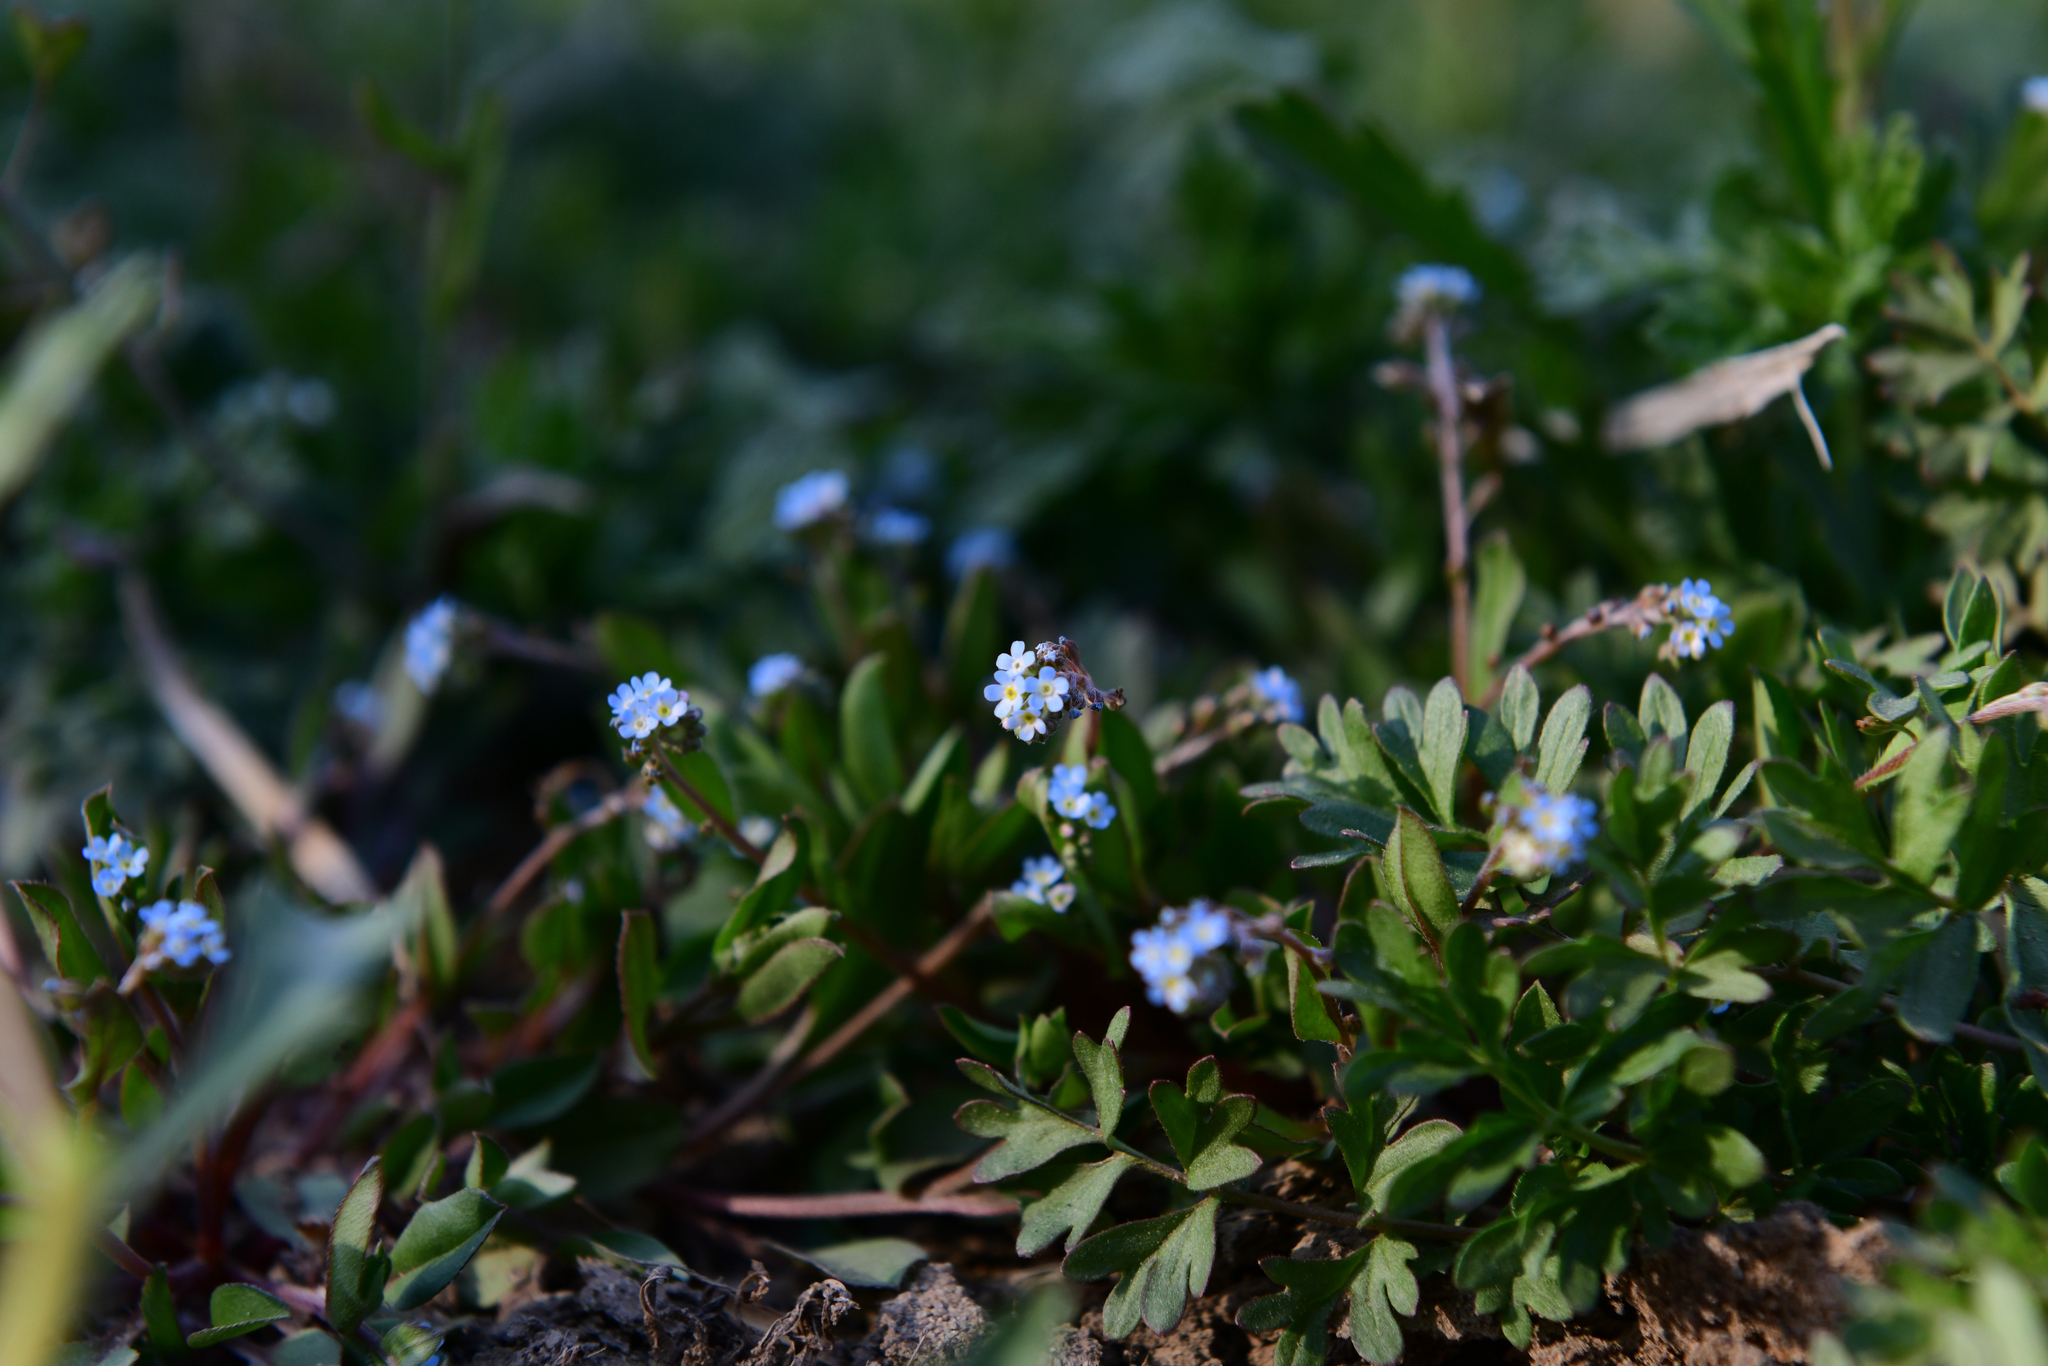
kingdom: Plantae
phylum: Tracheophyta
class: Magnoliopsida
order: Boraginales
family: Boraginaceae
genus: Trigonotis
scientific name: Trigonotis peduncularis
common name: Cucumber herb
